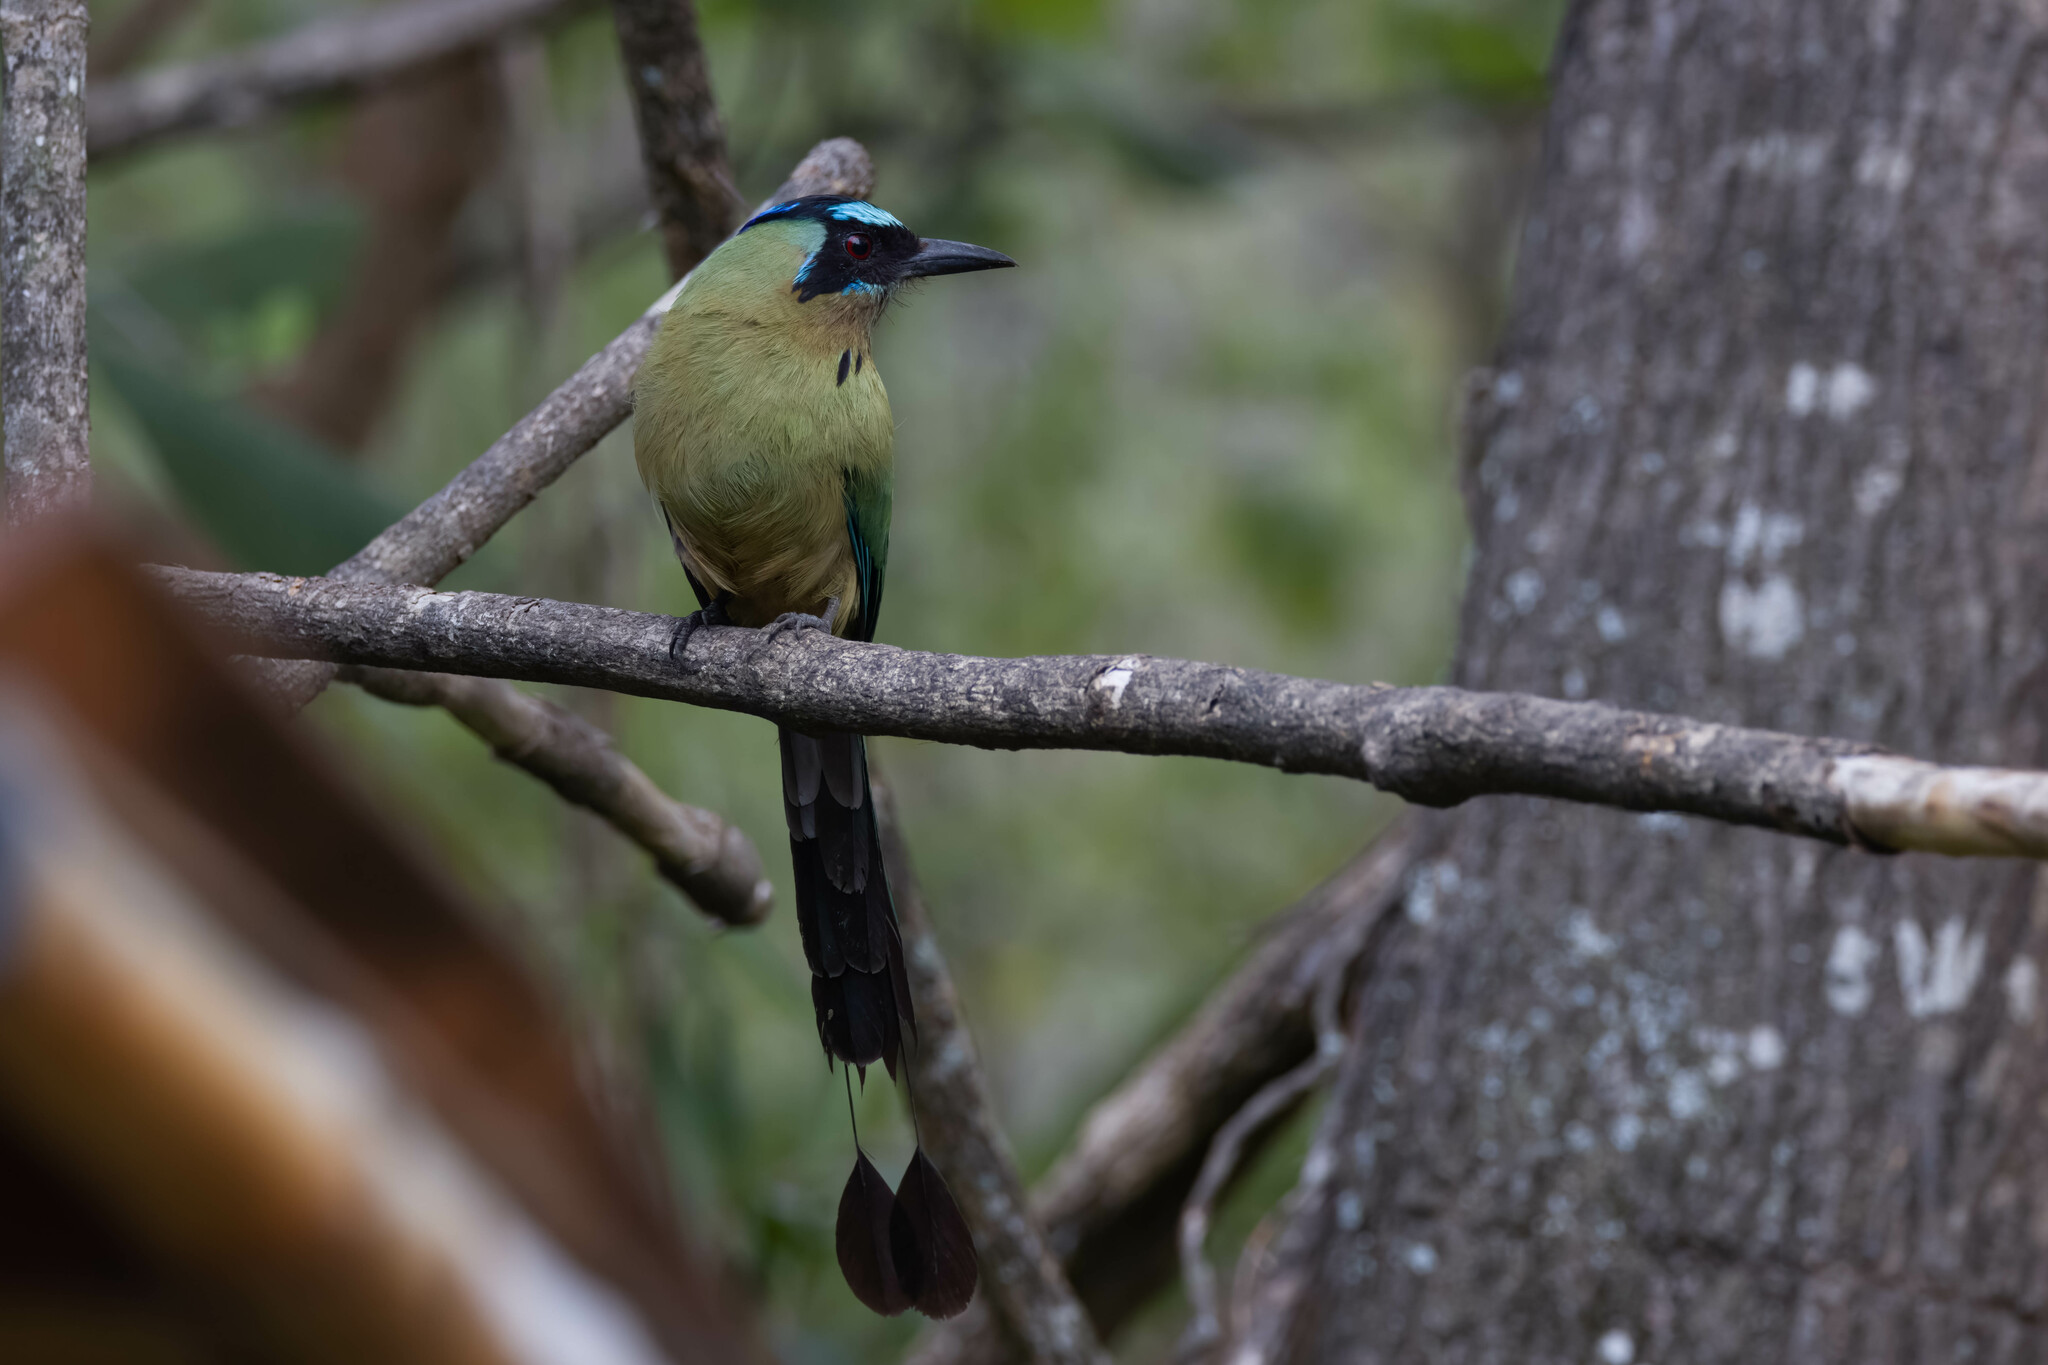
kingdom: Animalia
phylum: Chordata
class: Aves
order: Coraciiformes
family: Momotidae
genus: Momotus
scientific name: Momotus subrufescens
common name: Whooping motmot
